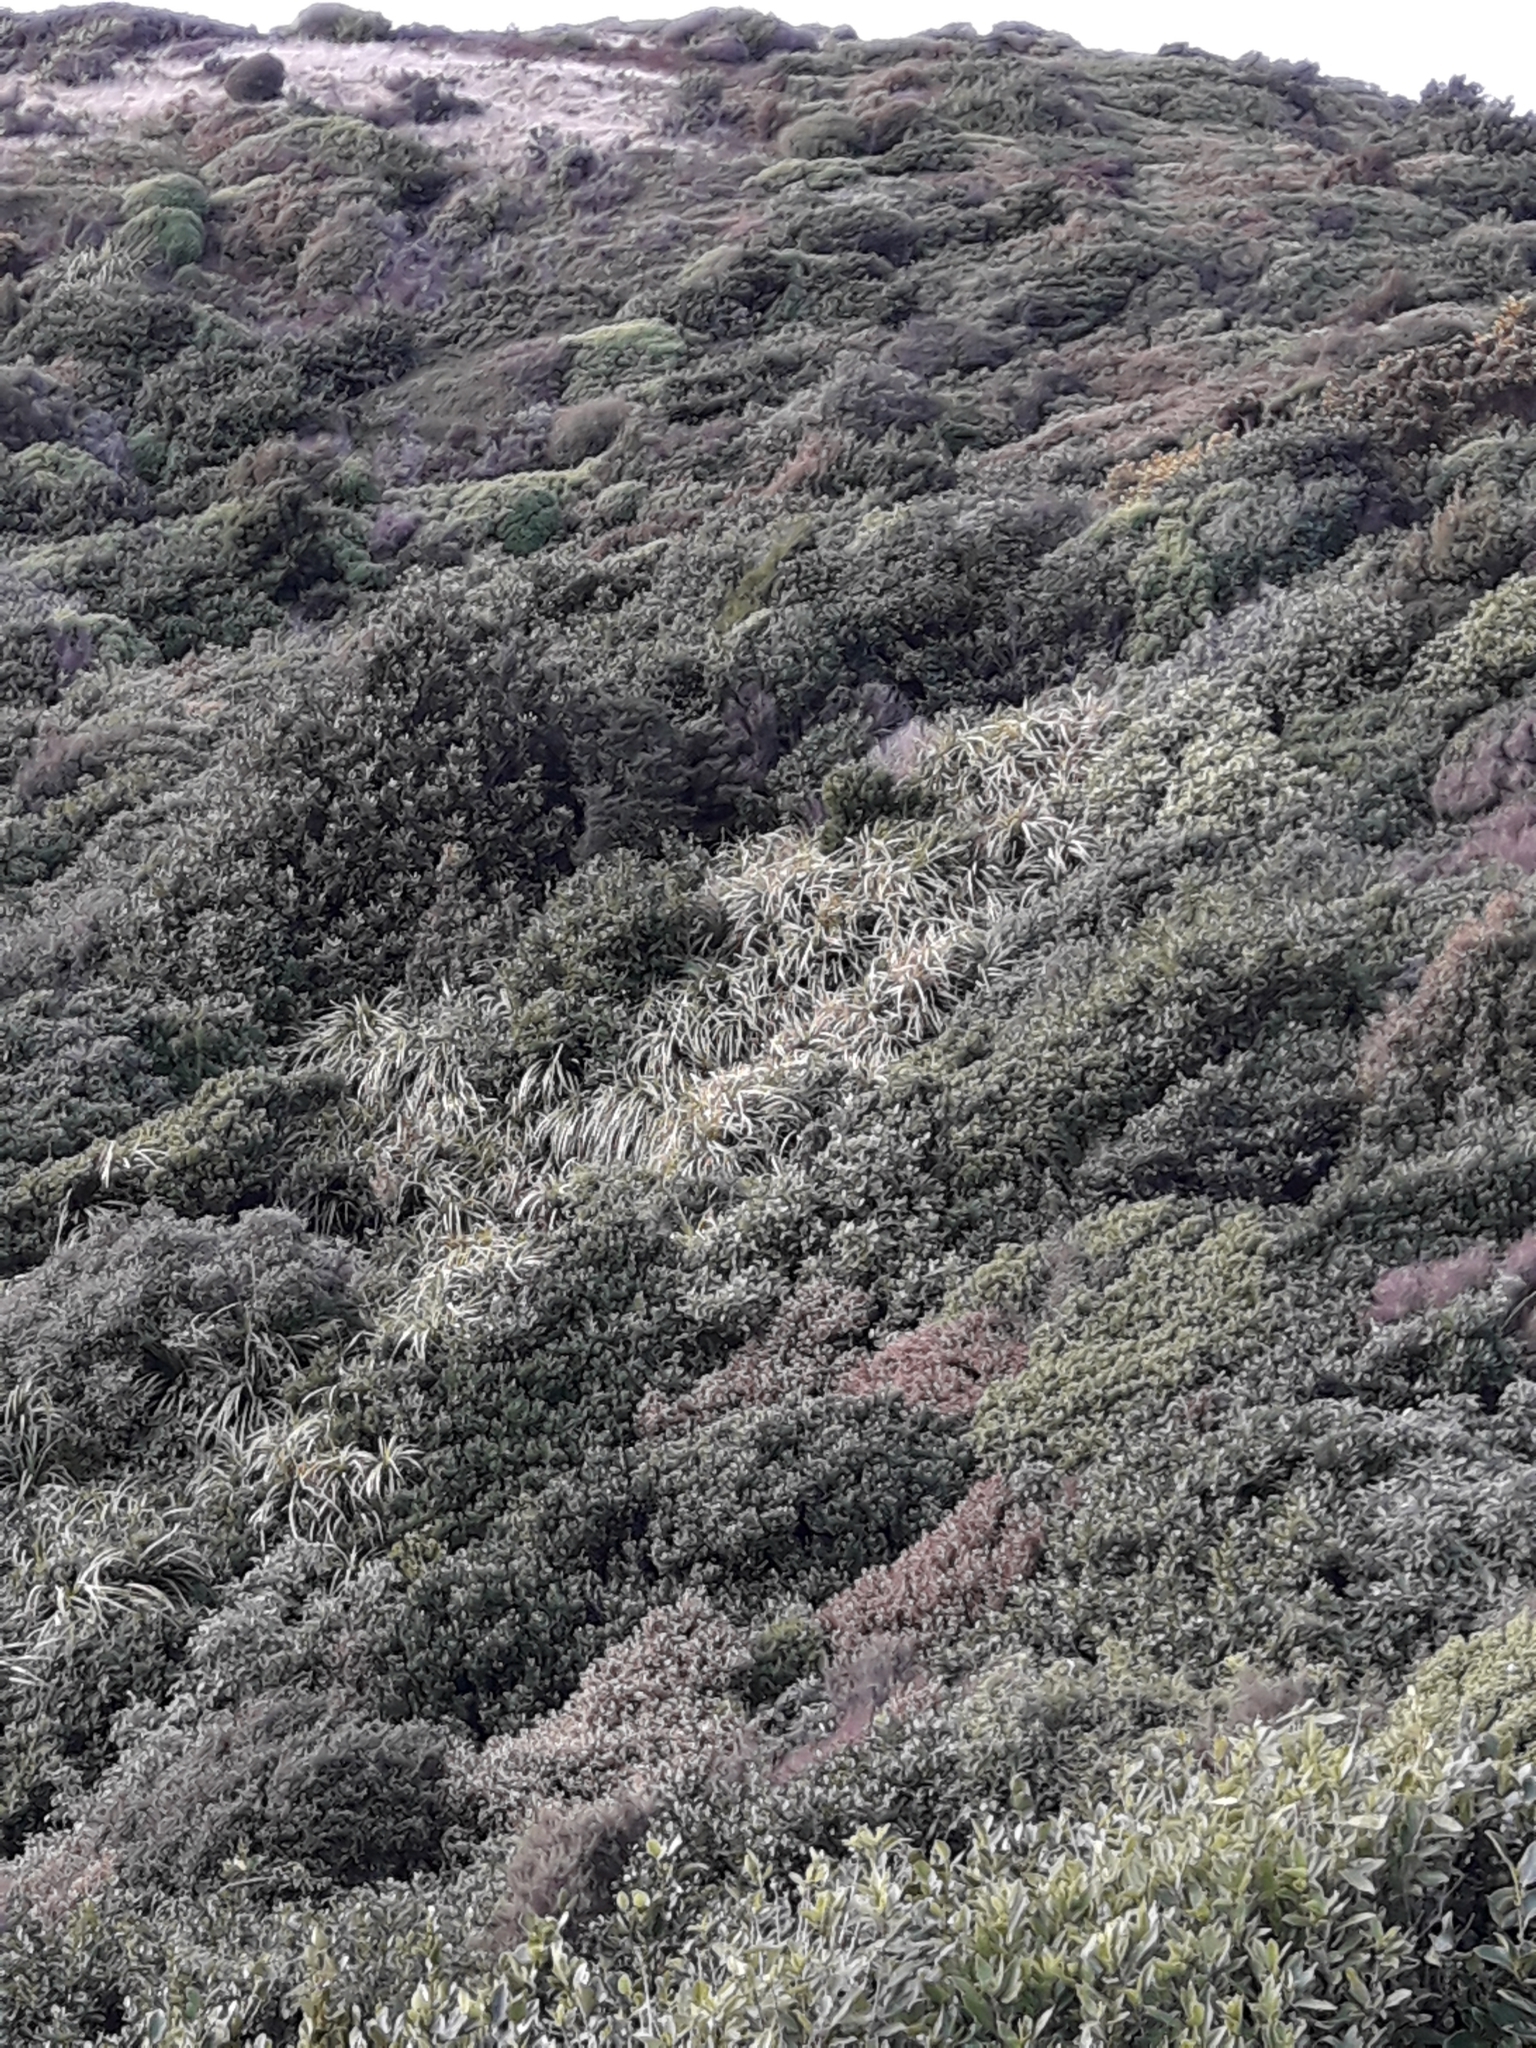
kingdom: Plantae
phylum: Tracheophyta
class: Liliopsida
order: Pandanales
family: Pandanaceae
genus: Freycinetia
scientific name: Freycinetia banksii
